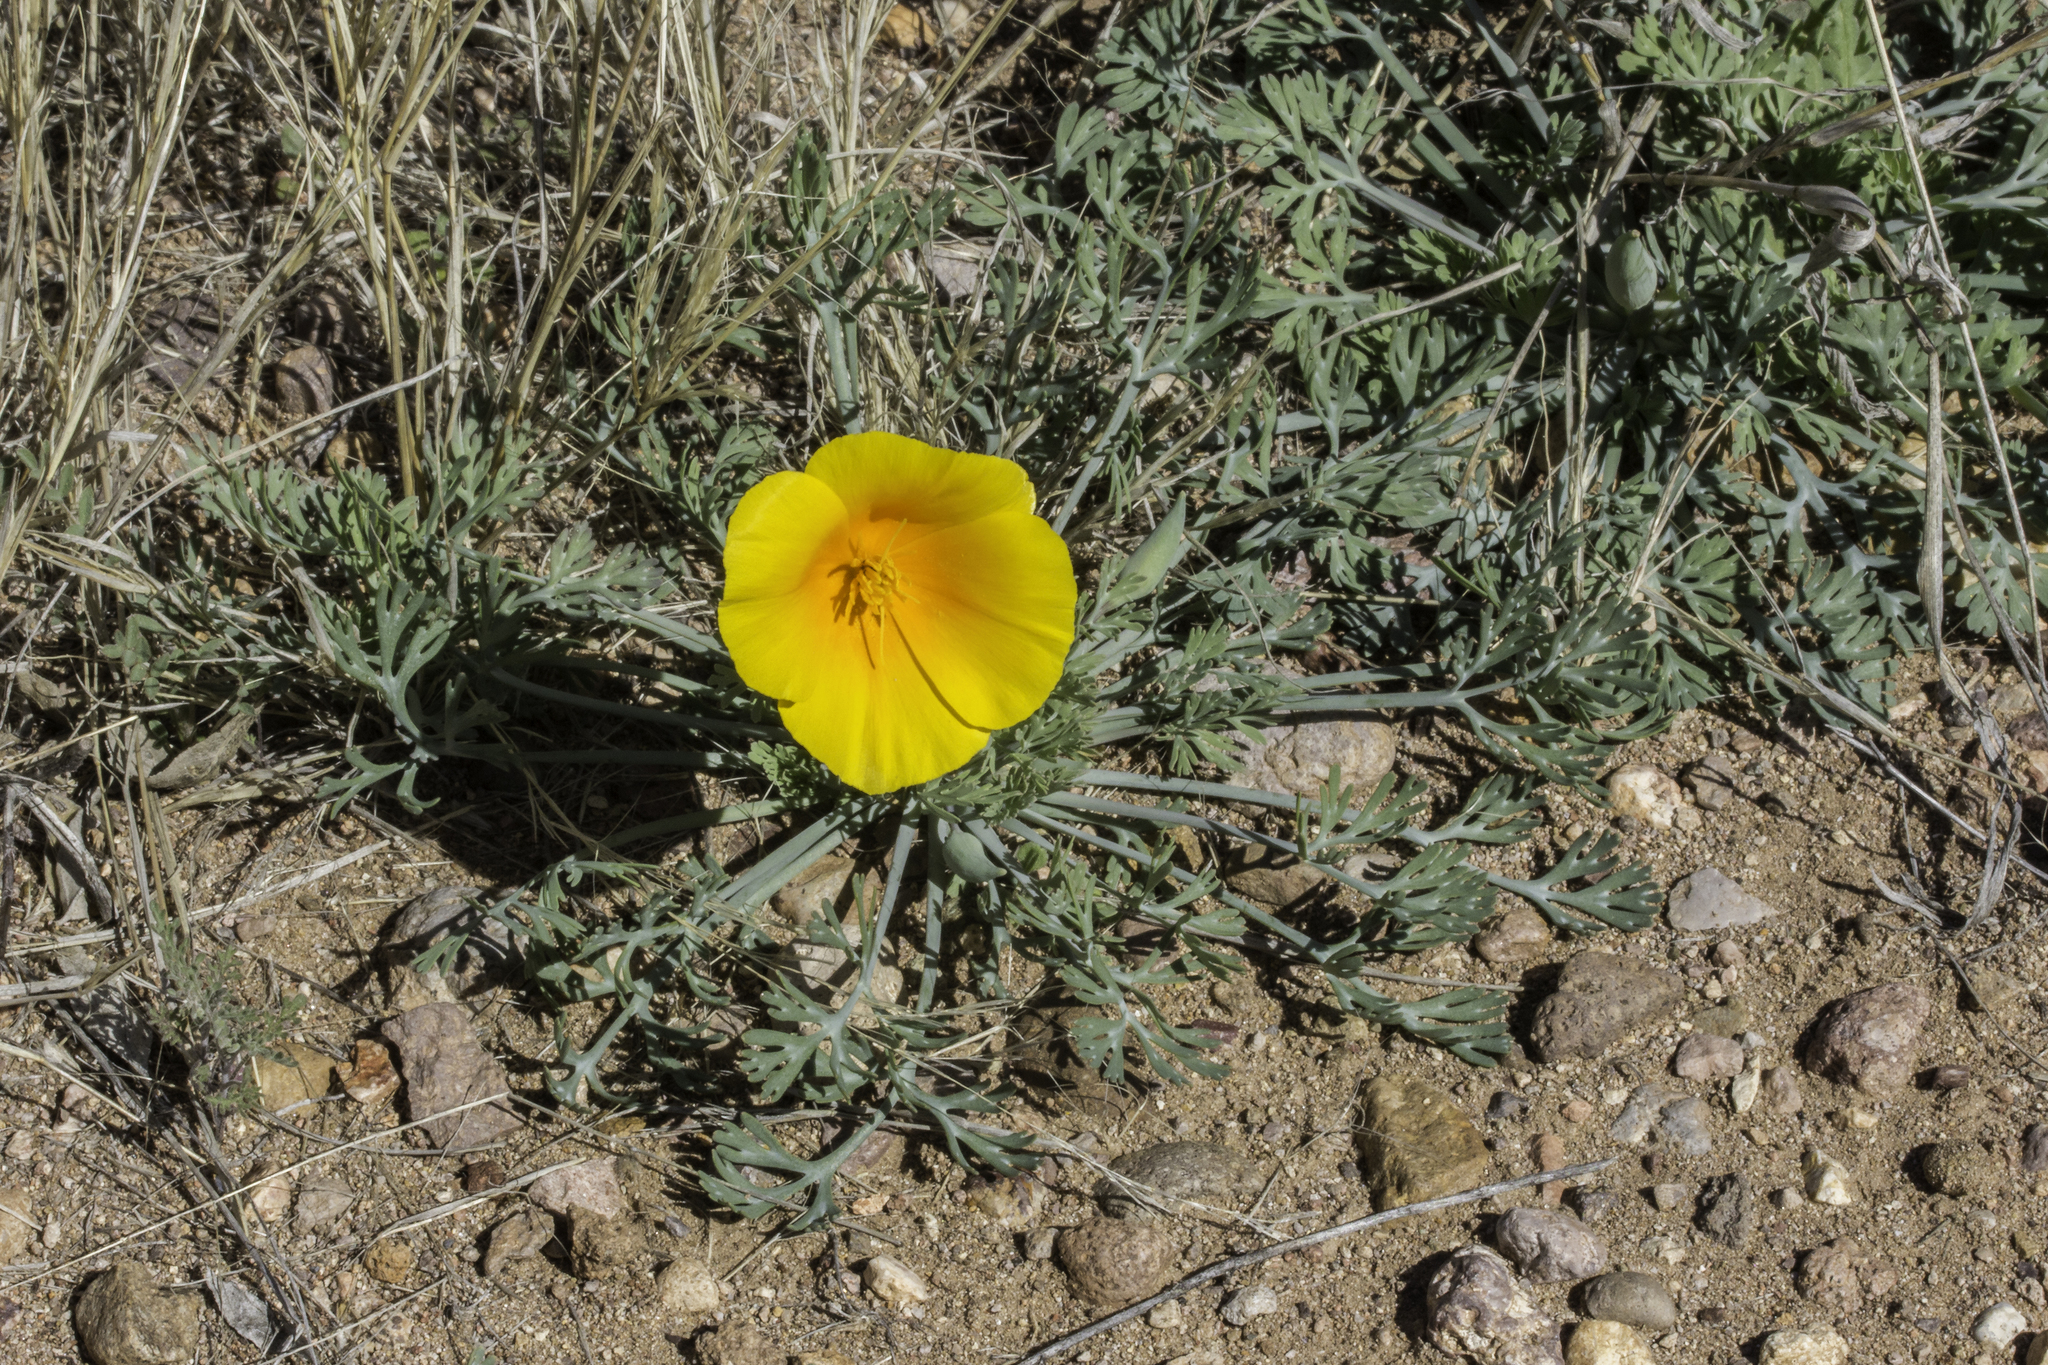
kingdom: Plantae
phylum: Tracheophyta
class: Magnoliopsida
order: Ranunculales
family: Papaveraceae
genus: Eschscholzia
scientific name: Eschscholzia californica
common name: California poppy
